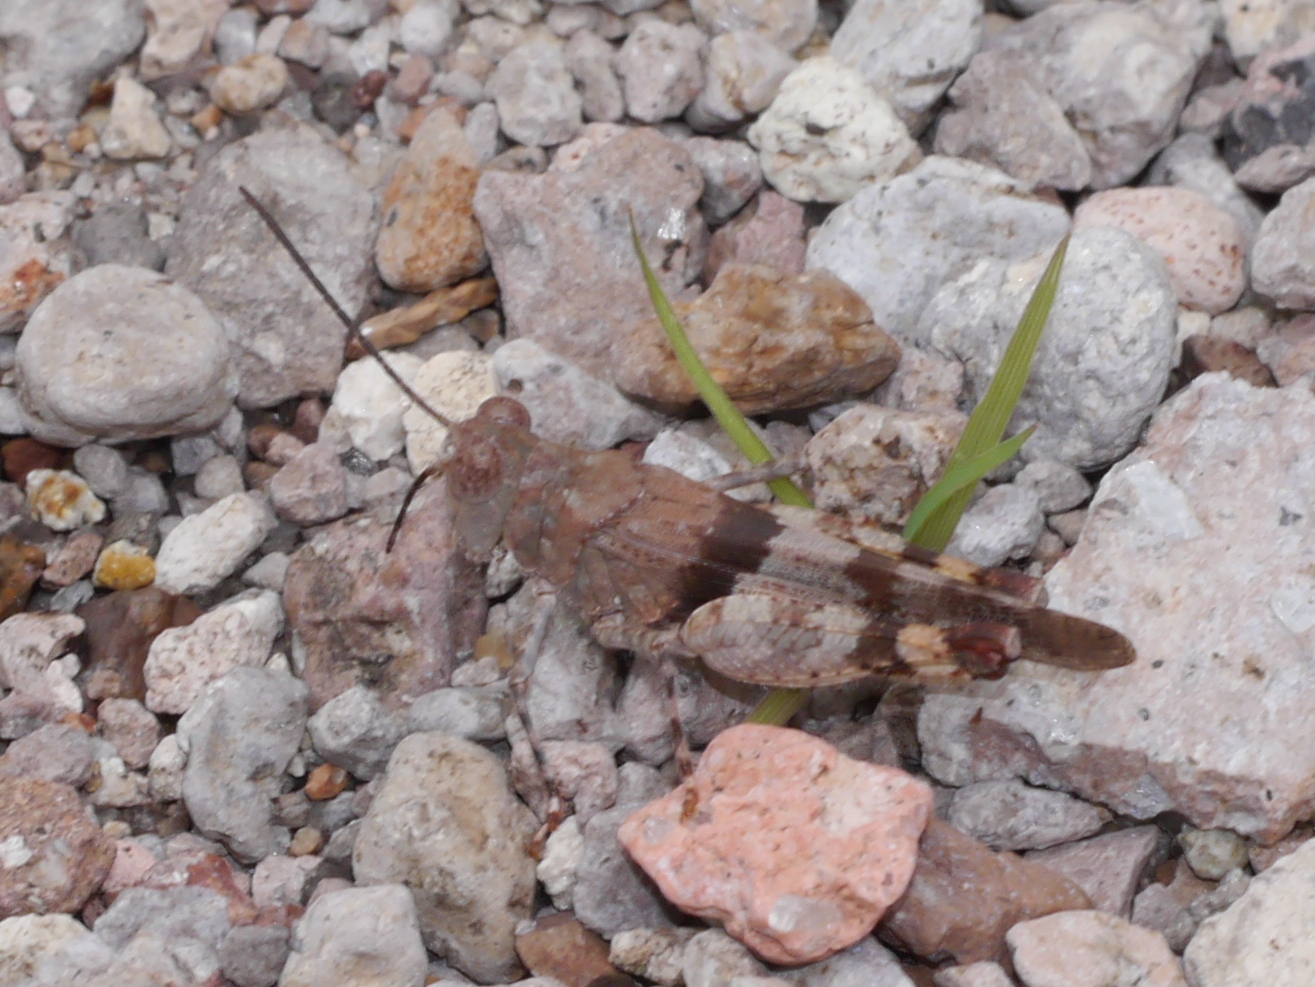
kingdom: Animalia
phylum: Arthropoda
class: Insecta
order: Orthoptera
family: Acrididae
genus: Heliastus
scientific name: Heliastus benjamini
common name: Arroyo grasshopper
